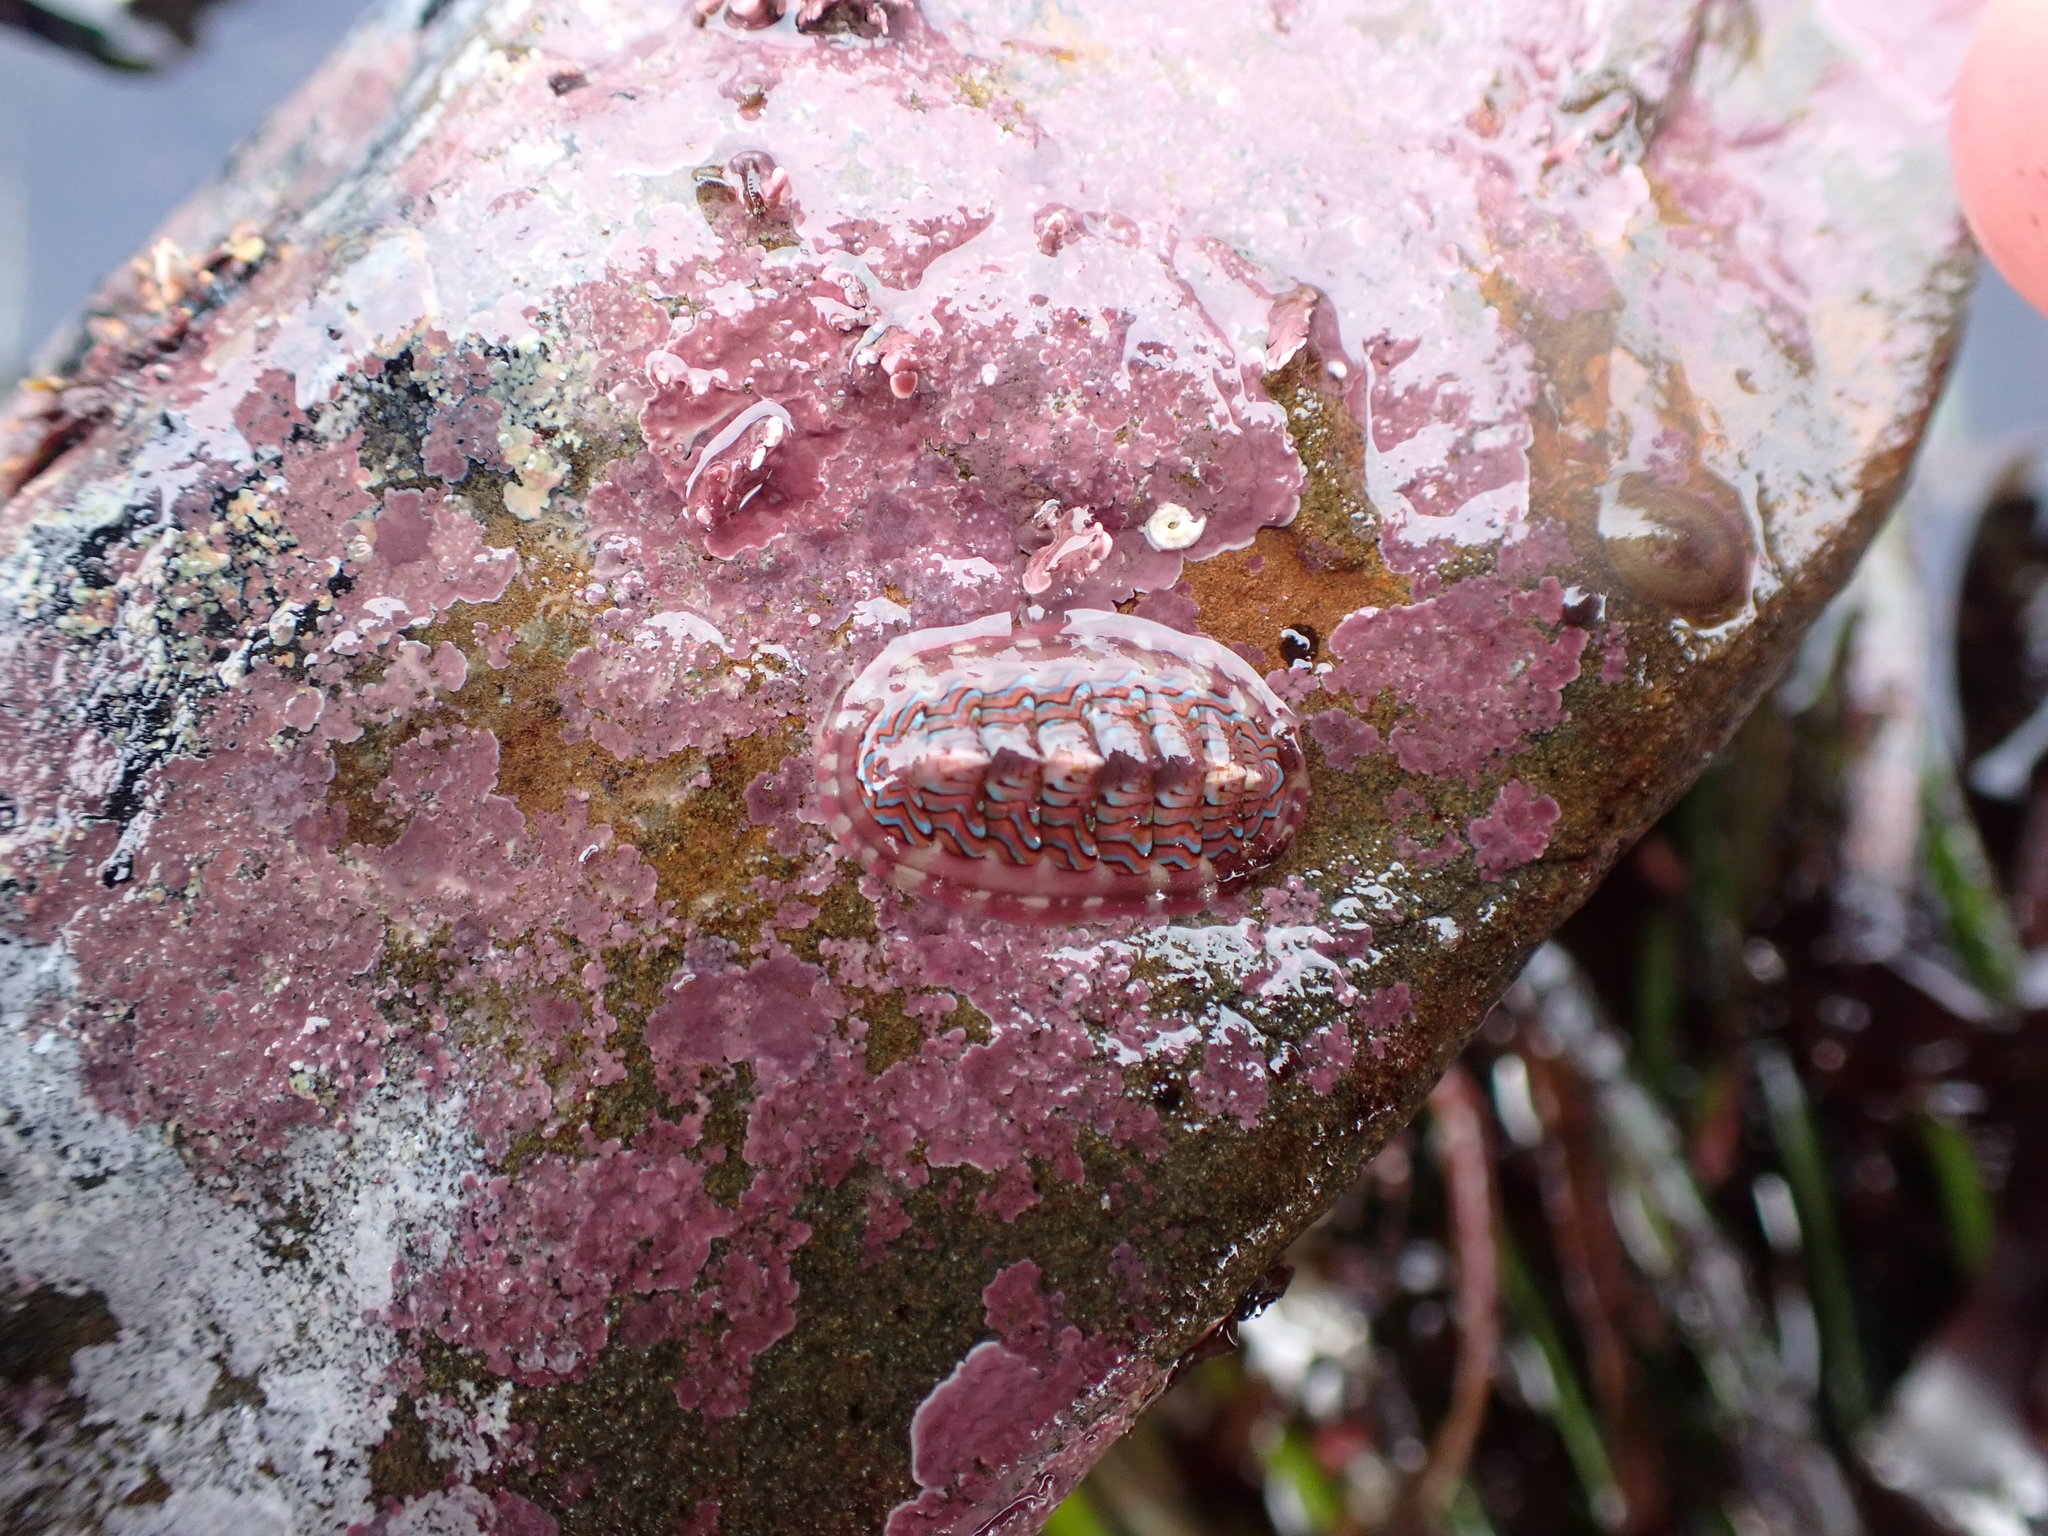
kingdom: Animalia
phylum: Mollusca
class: Polyplacophora
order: Chitonida
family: Tonicellidae
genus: Tonicella
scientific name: Tonicella lokii
